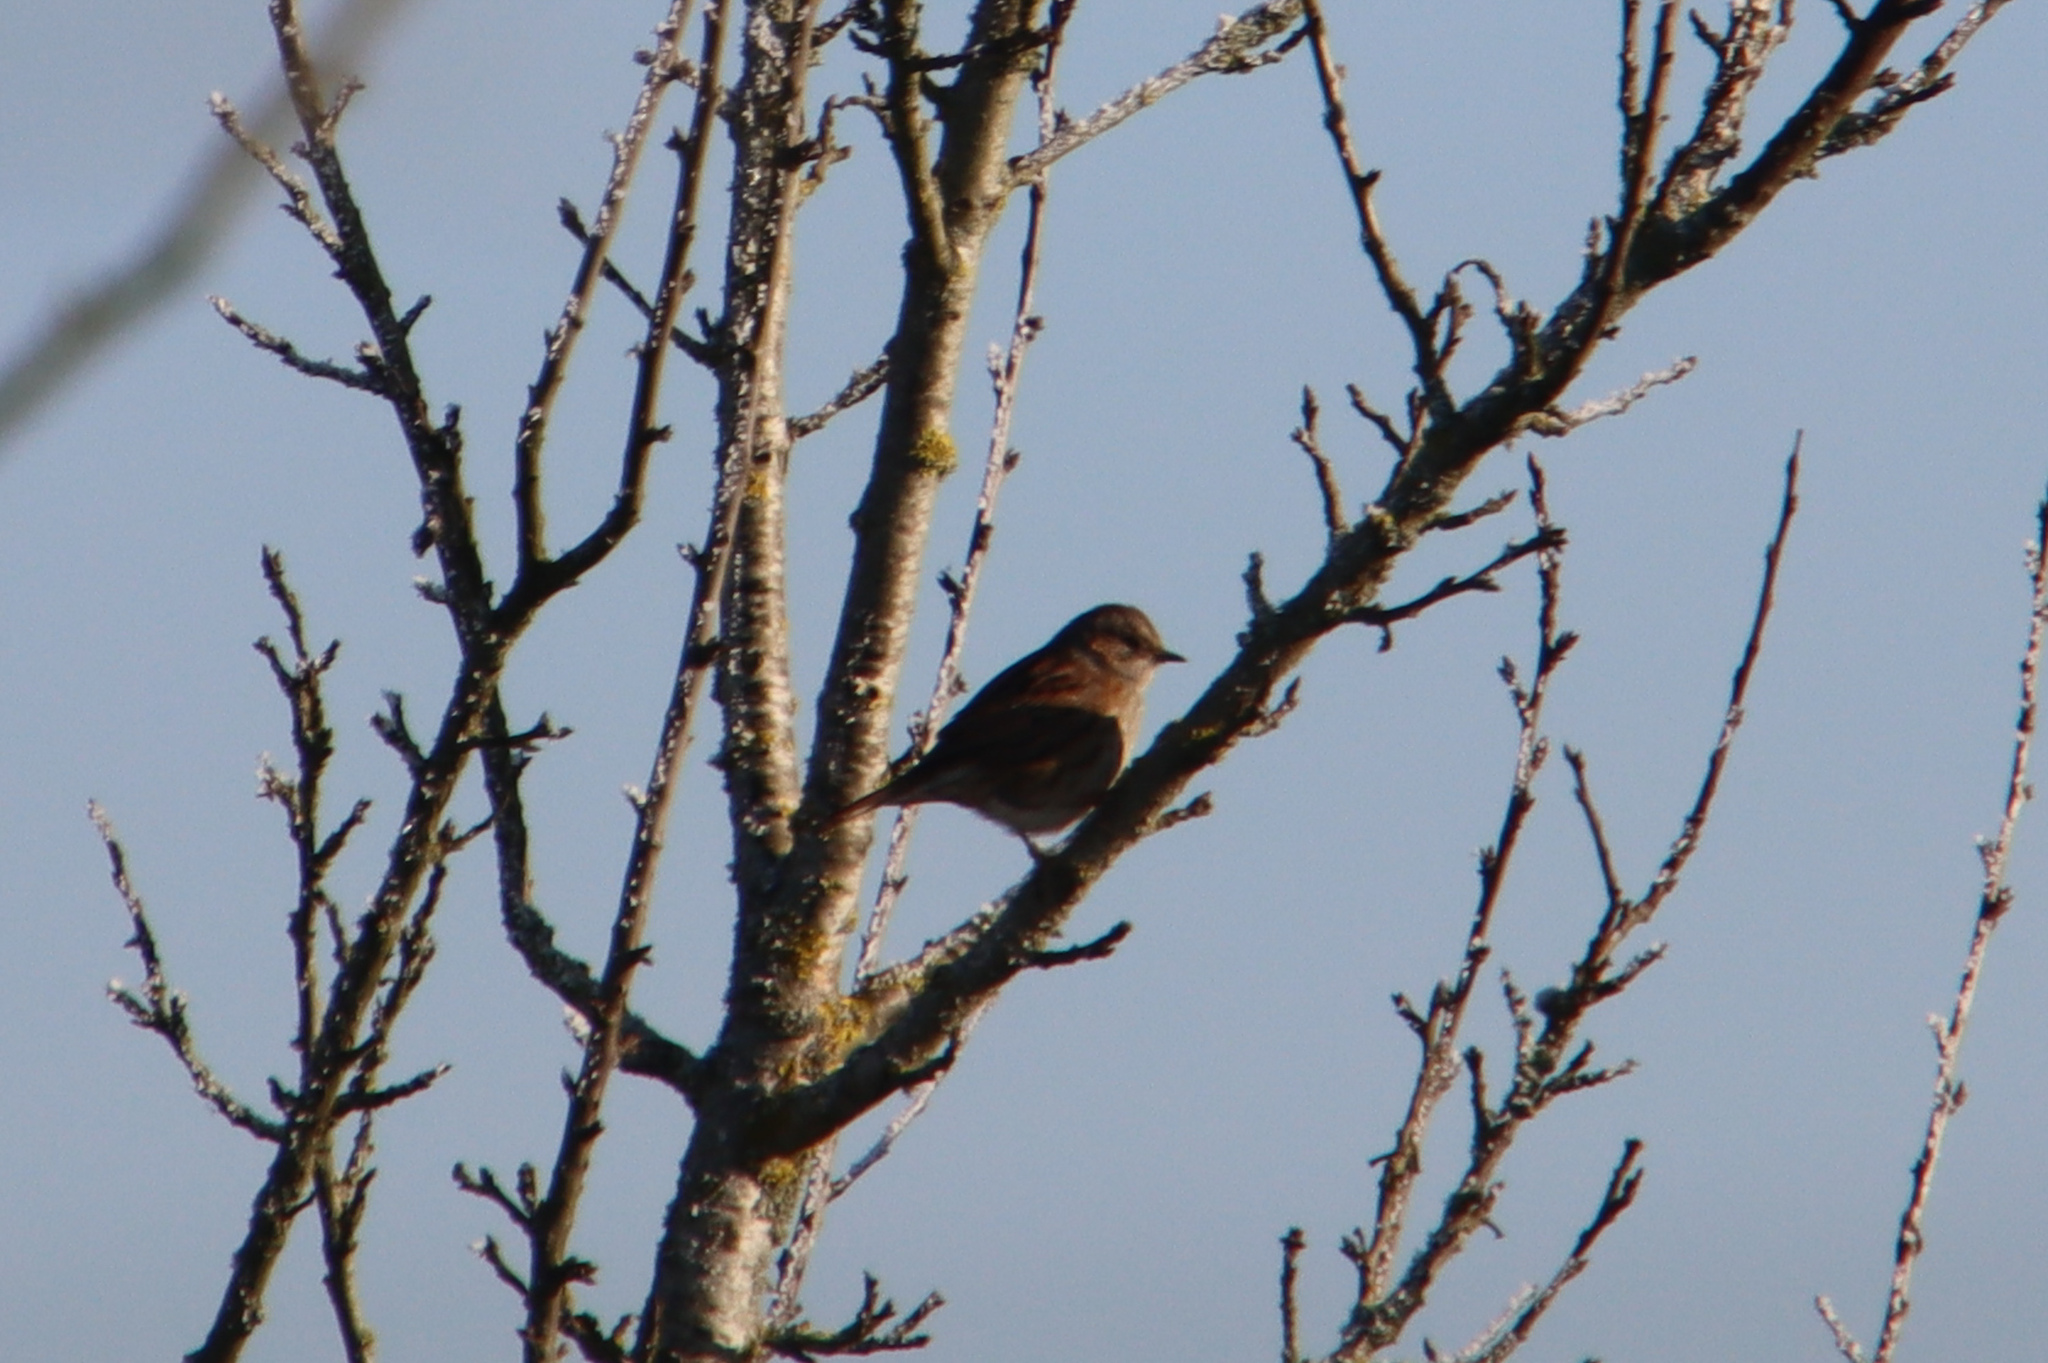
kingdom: Animalia
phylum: Chordata
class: Aves
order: Passeriformes
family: Prunellidae
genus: Prunella
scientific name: Prunella modularis
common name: Dunnock
